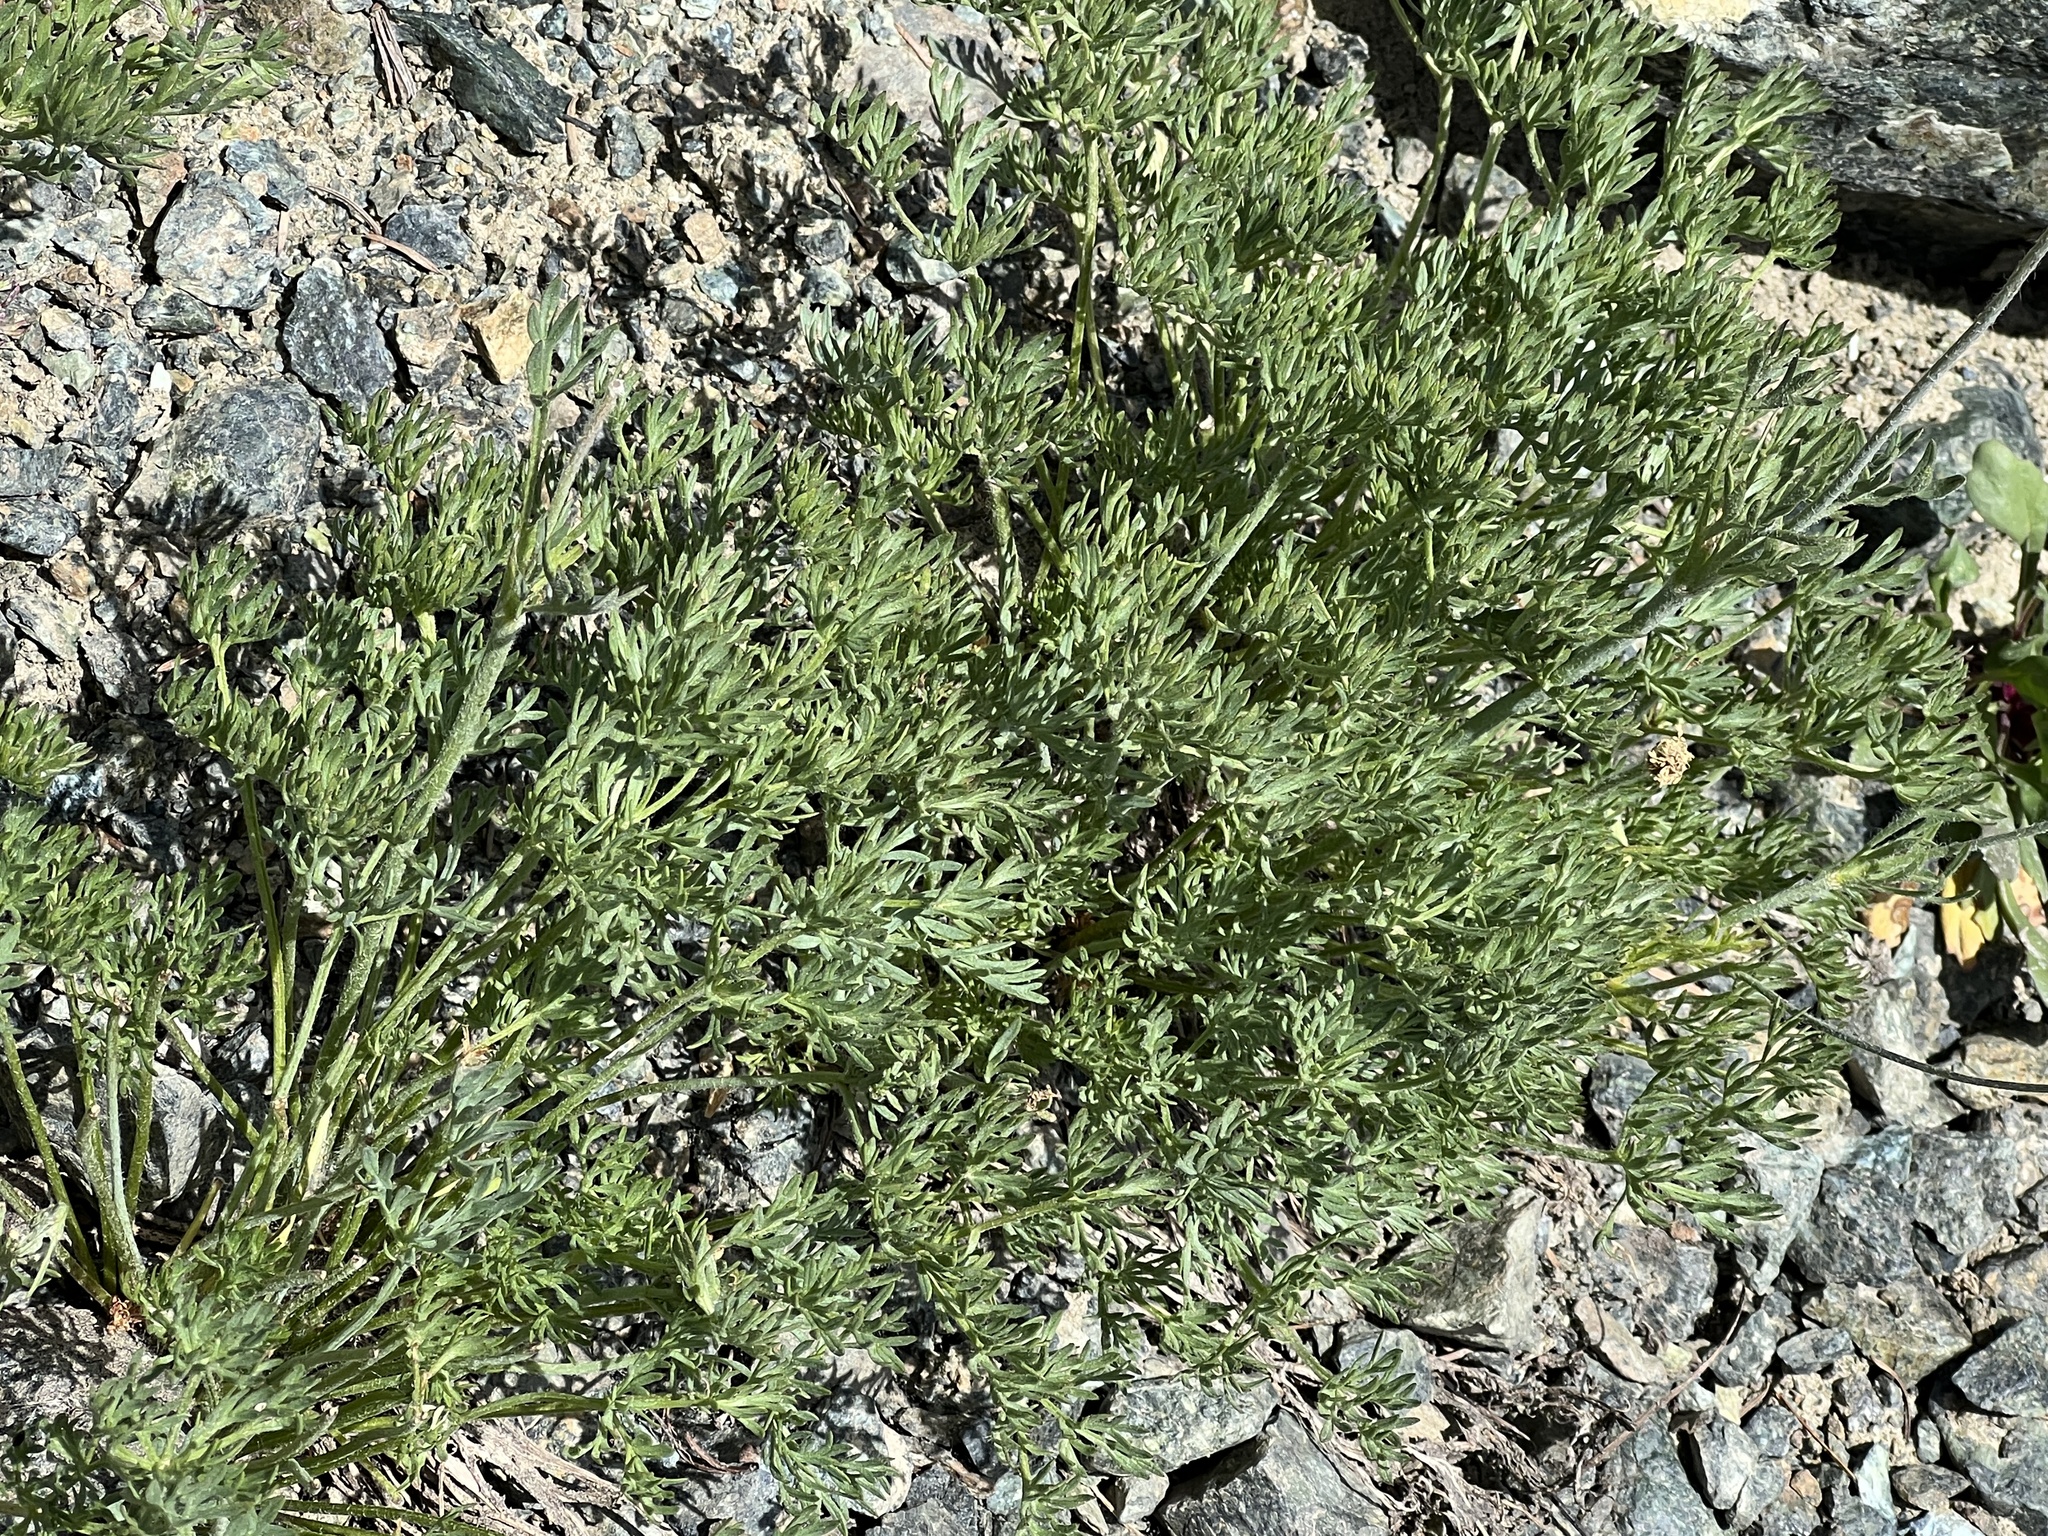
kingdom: Plantae
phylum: Tracheophyta
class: Magnoliopsida
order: Ranunculales
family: Ranunculaceae
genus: Anemone
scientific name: Anemone drummondii
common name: Drummond's anemone
